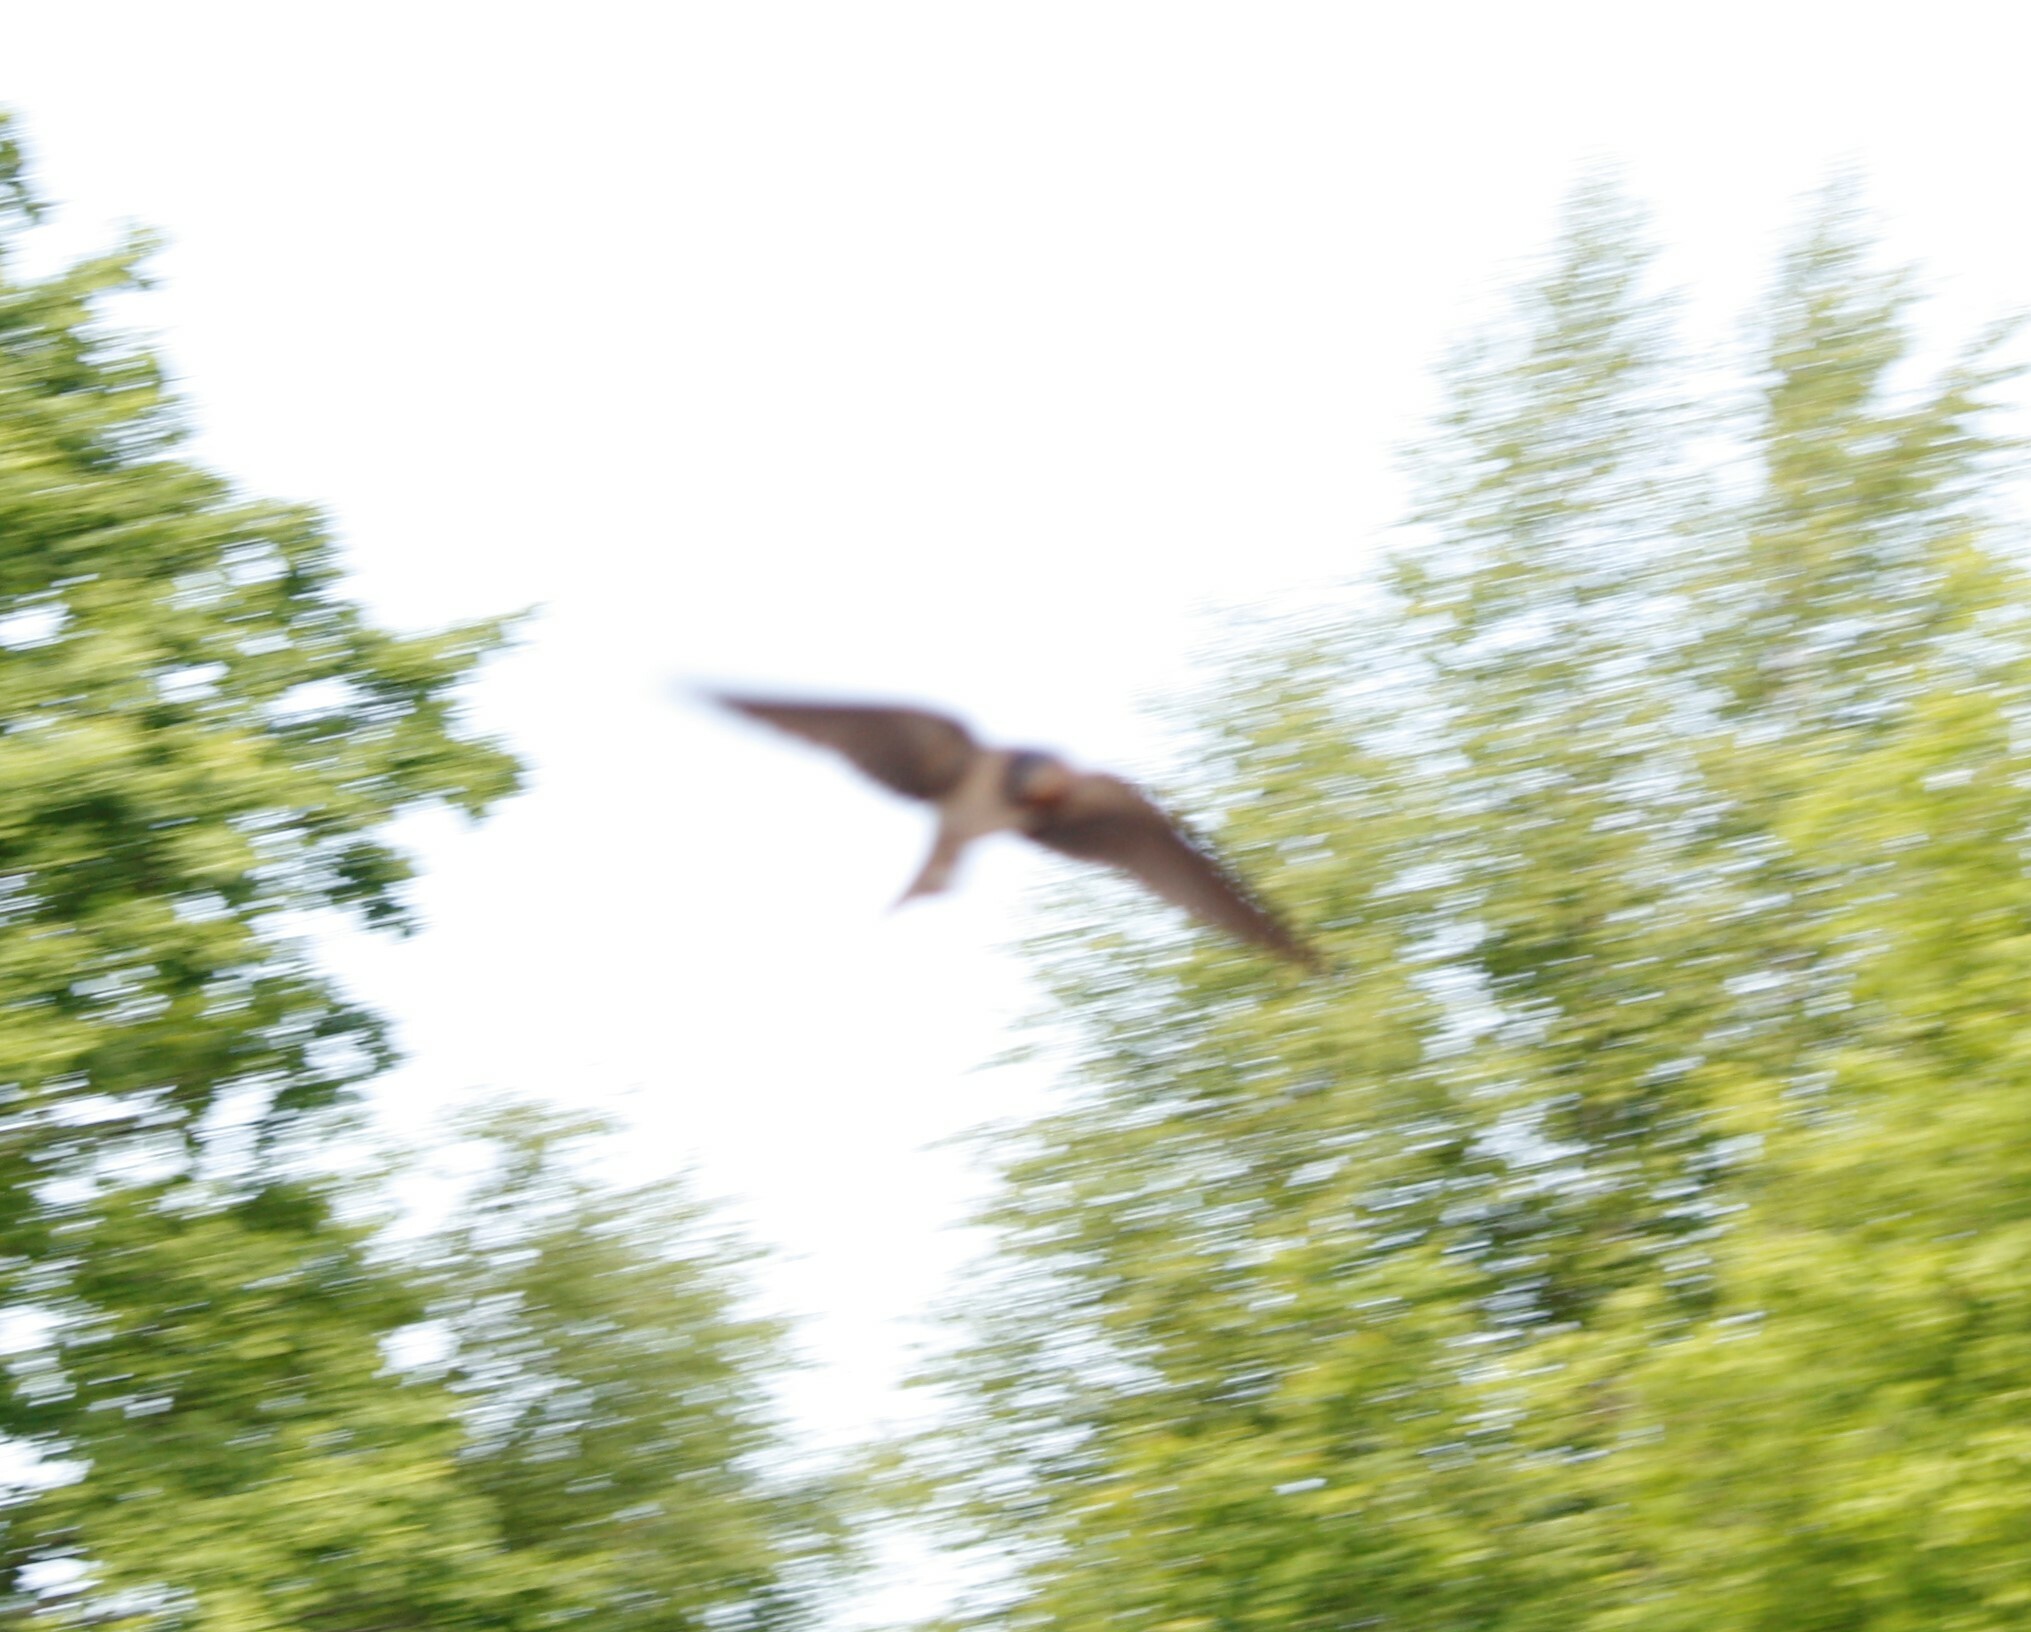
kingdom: Animalia
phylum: Chordata
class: Aves
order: Passeriformes
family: Hirundinidae
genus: Hirundo
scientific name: Hirundo rustica
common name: Barn swallow
